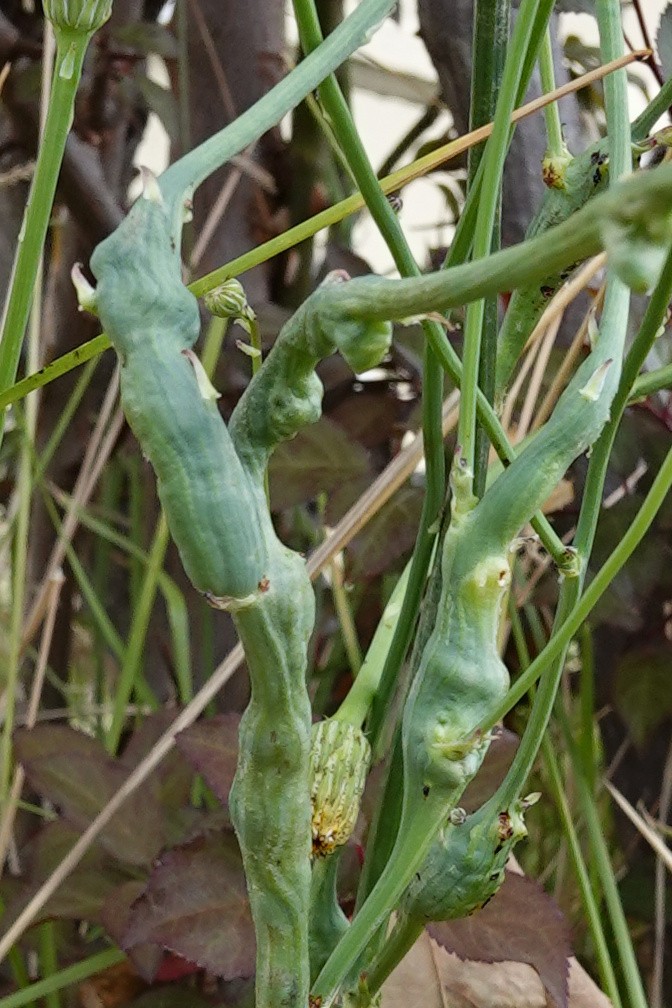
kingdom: Animalia
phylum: Arthropoda
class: Insecta
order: Hymenoptera
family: Cynipidae
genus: Phanacis
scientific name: Phanacis hypochoeridis
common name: Gall wasp
